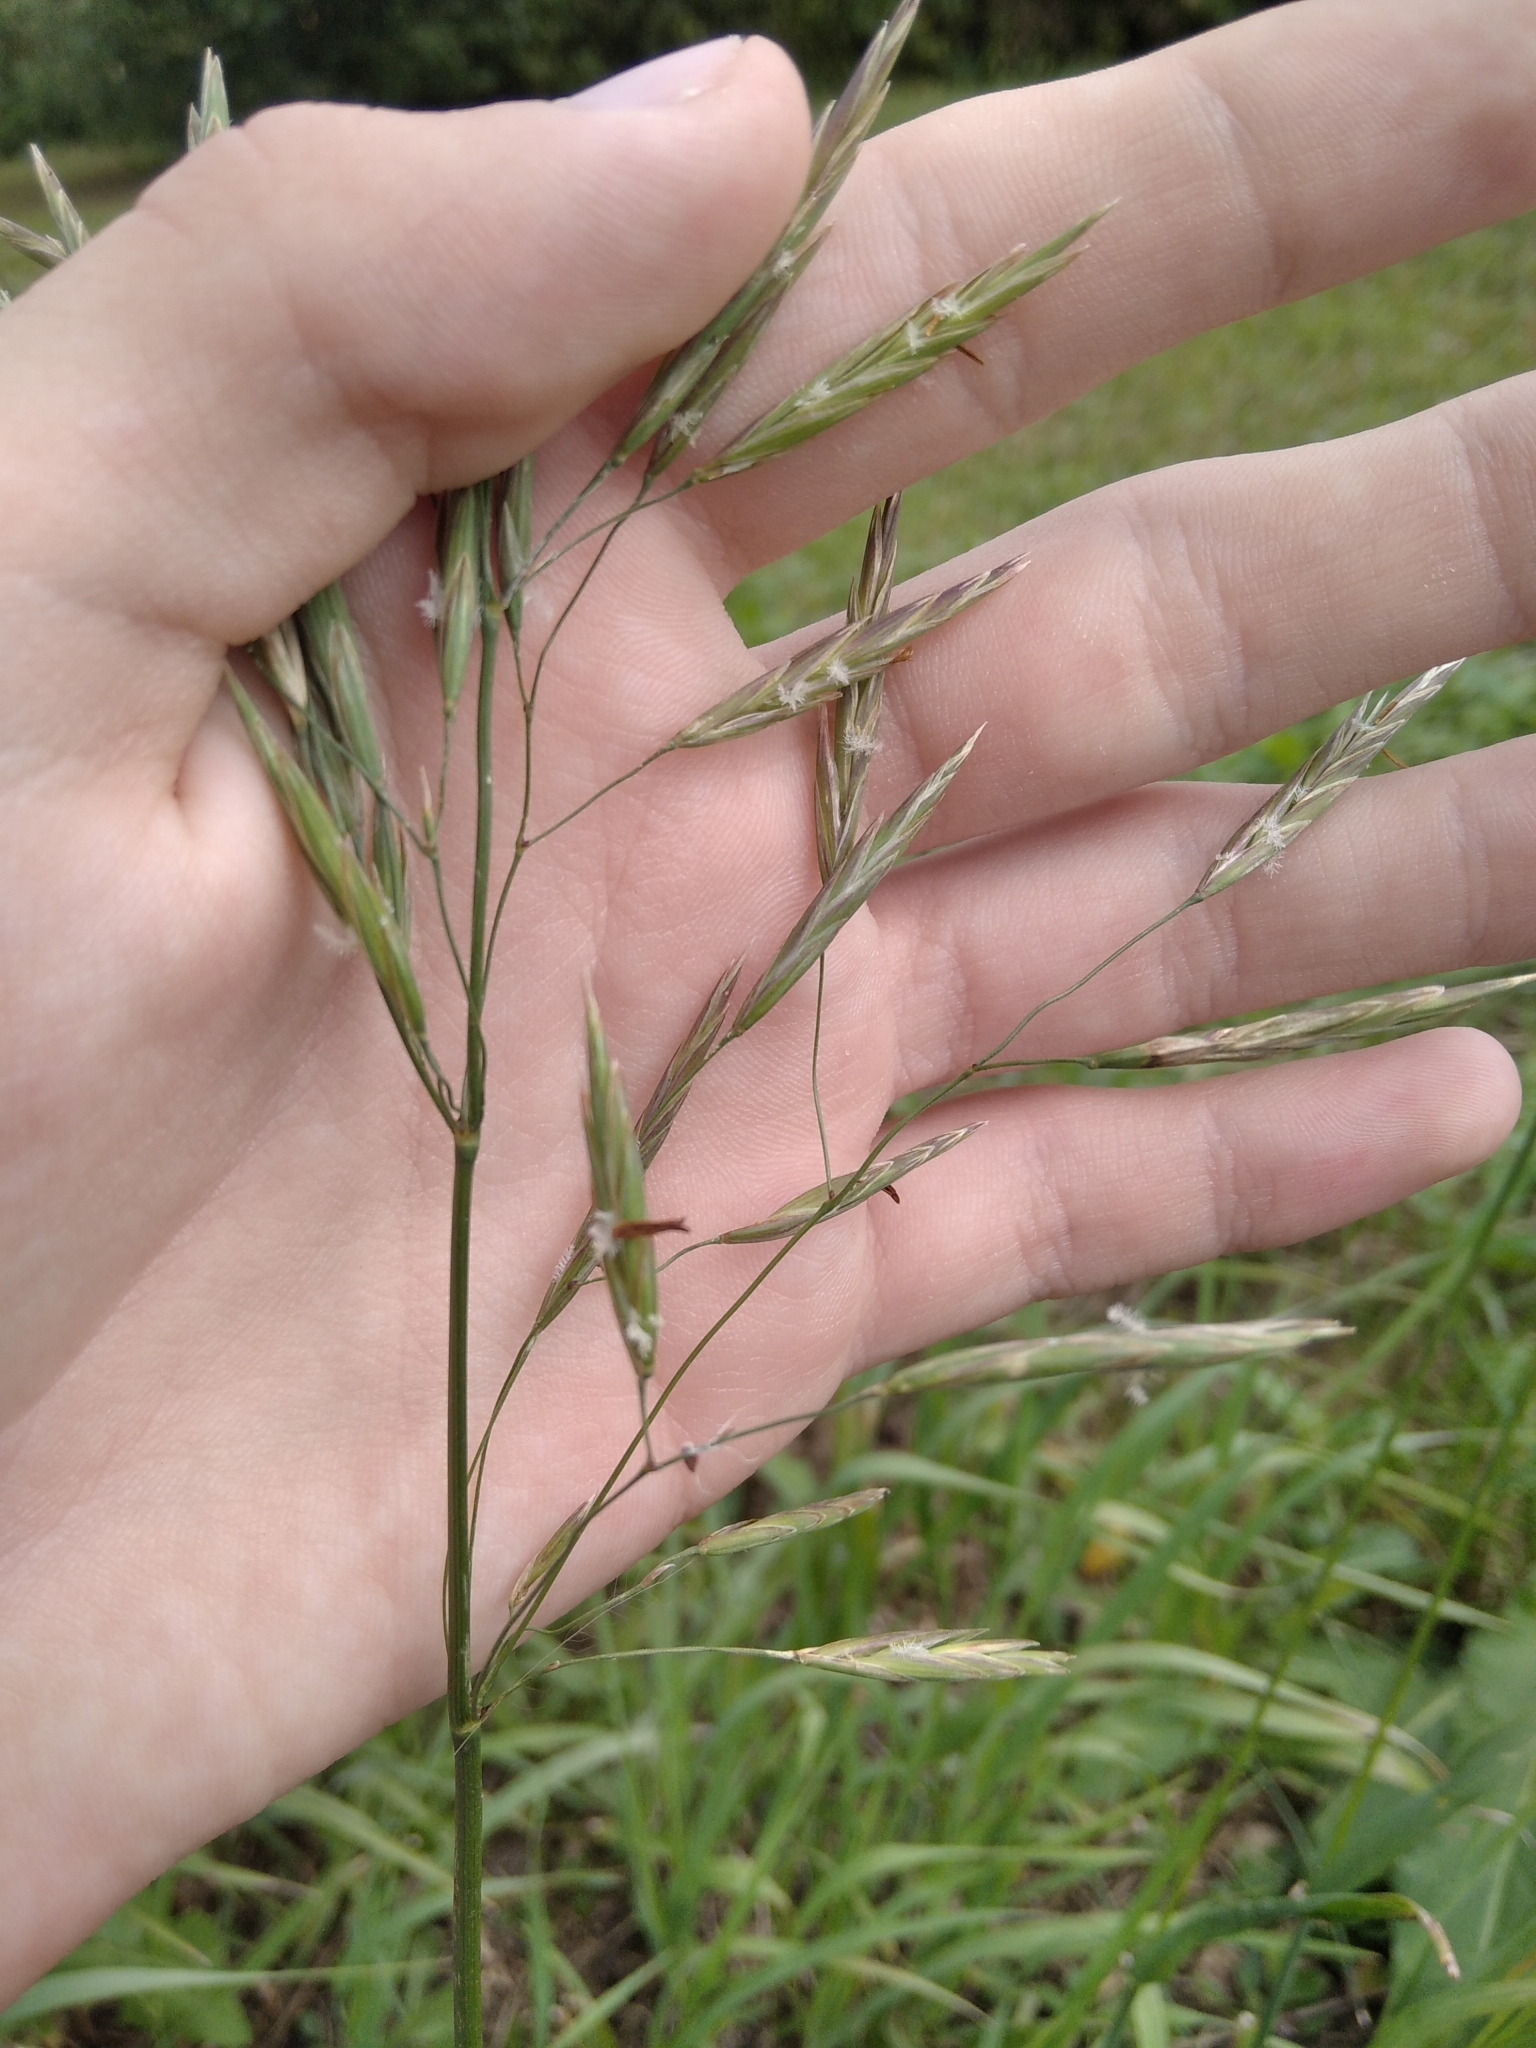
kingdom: Plantae
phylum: Tracheophyta
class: Liliopsida
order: Poales
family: Poaceae
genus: Bromus
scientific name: Bromus inermis
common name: Smooth brome
